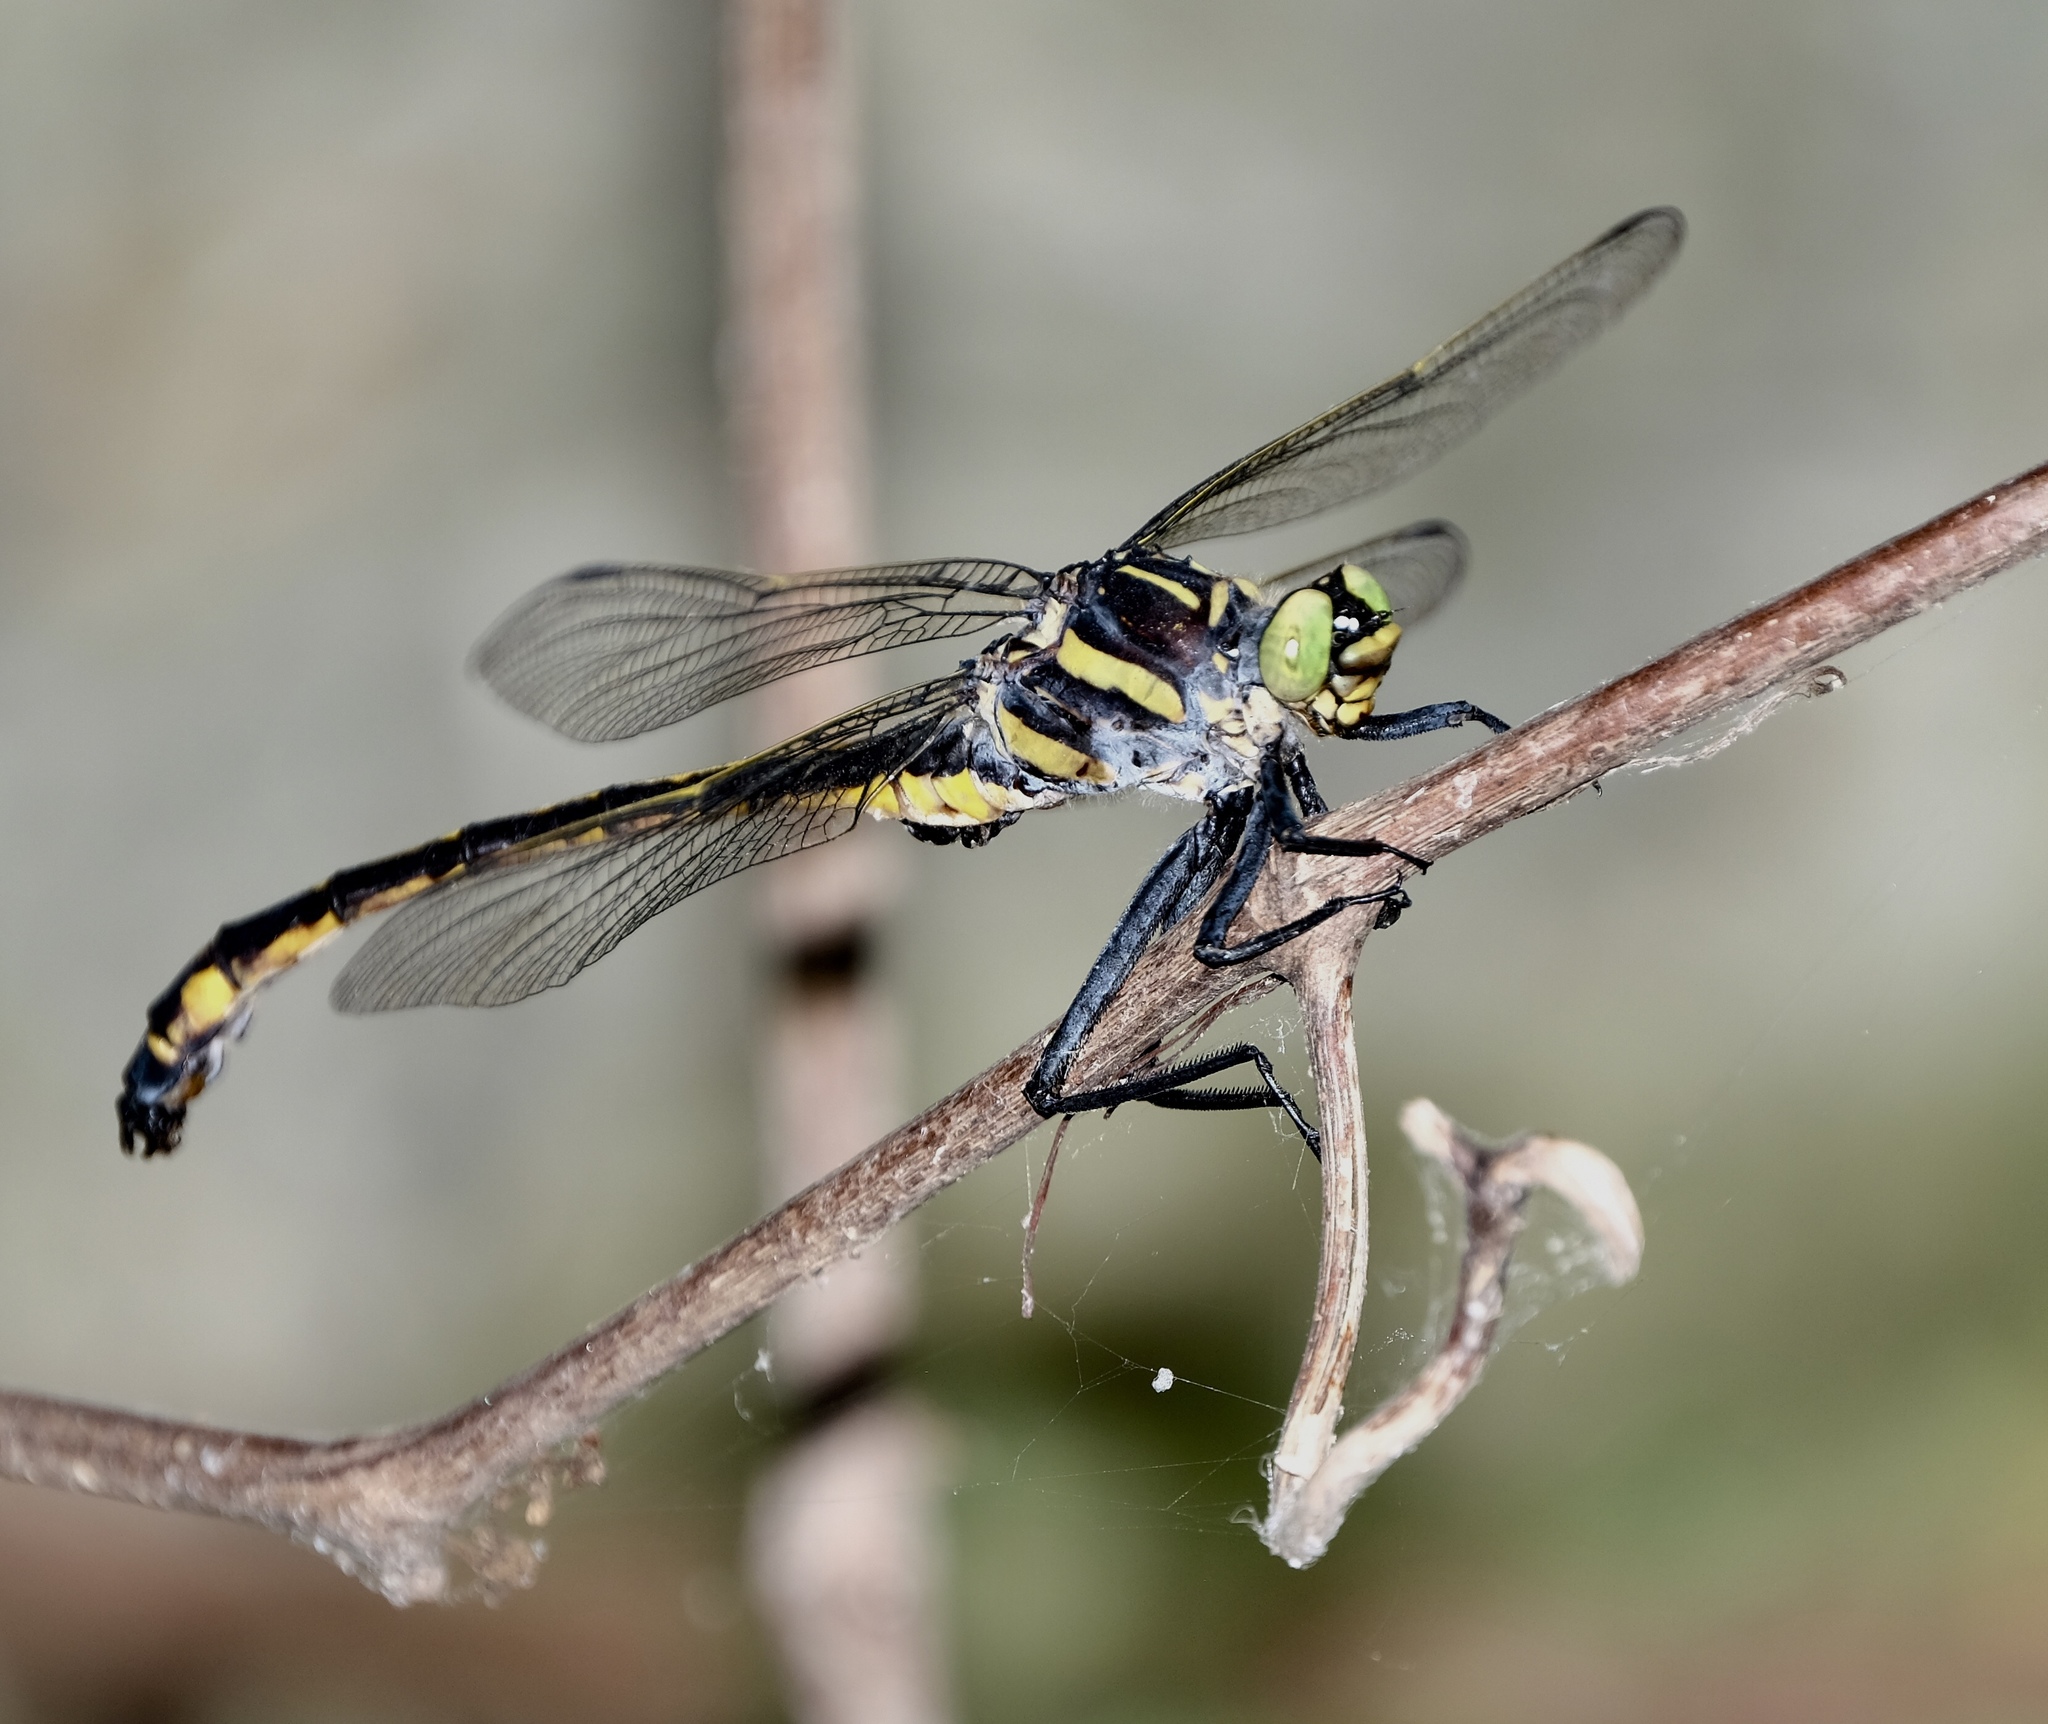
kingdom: Animalia
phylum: Arthropoda
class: Insecta
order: Odonata
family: Gomphidae
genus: Hagenius
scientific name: Hagenius brevistylus
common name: Dragonhunter
